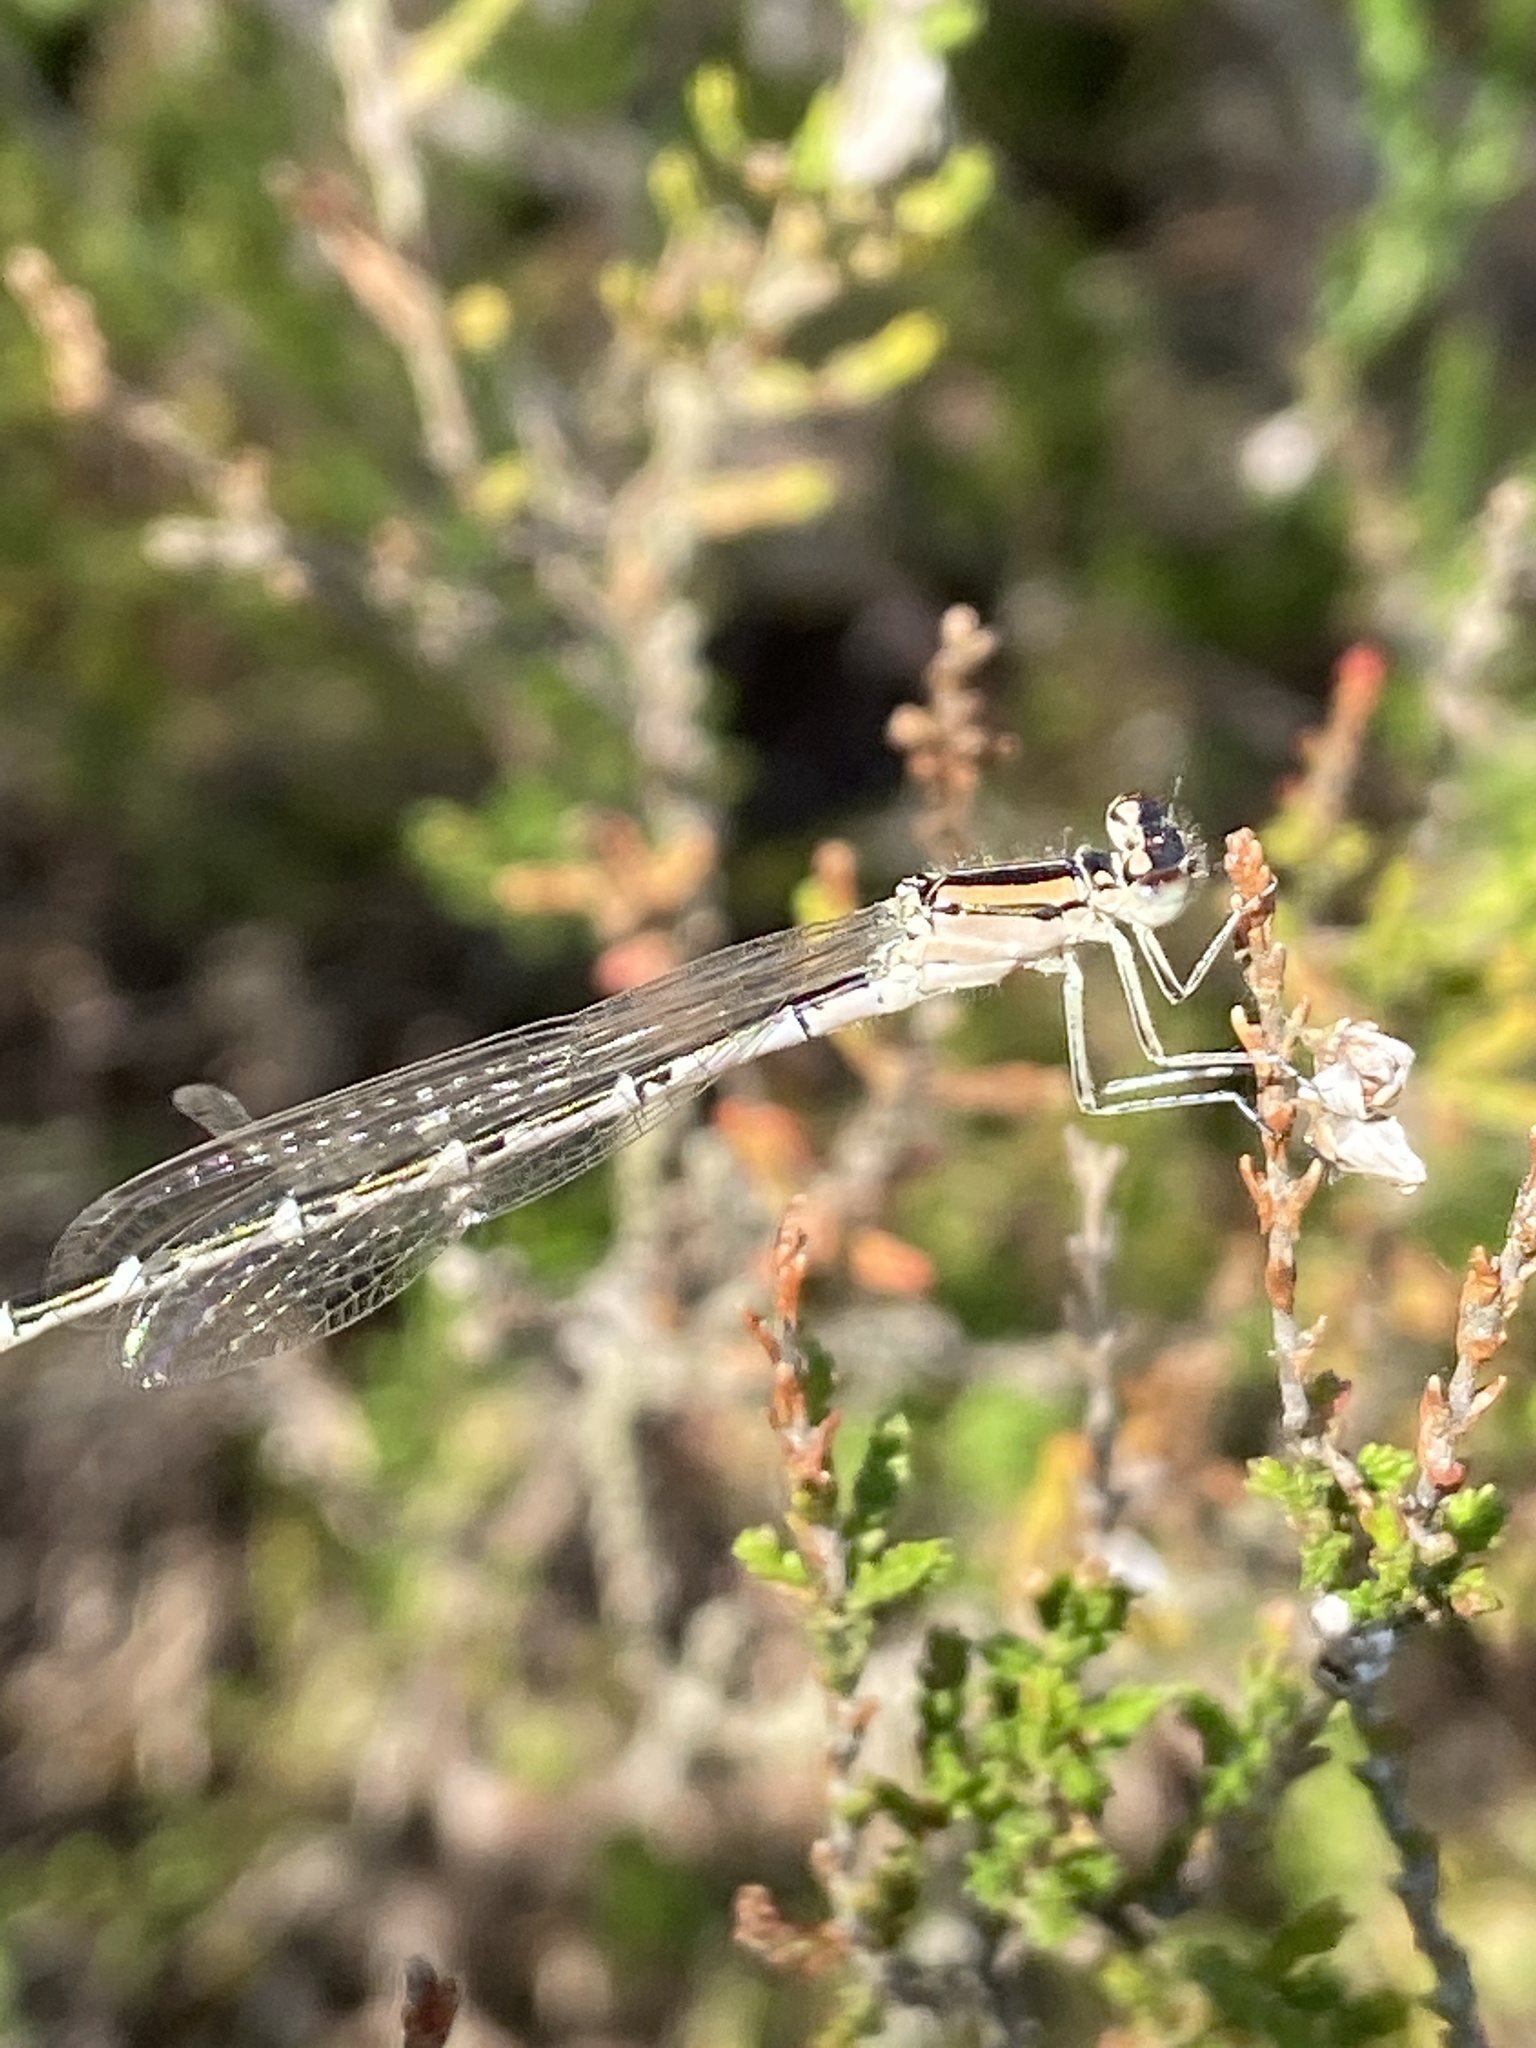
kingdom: Animalia
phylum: Arthropoda
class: Insecta
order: Odonata
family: Coenagrionidae
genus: Enallagma
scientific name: Enallagma cyathigerum
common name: Common blue damselfly
